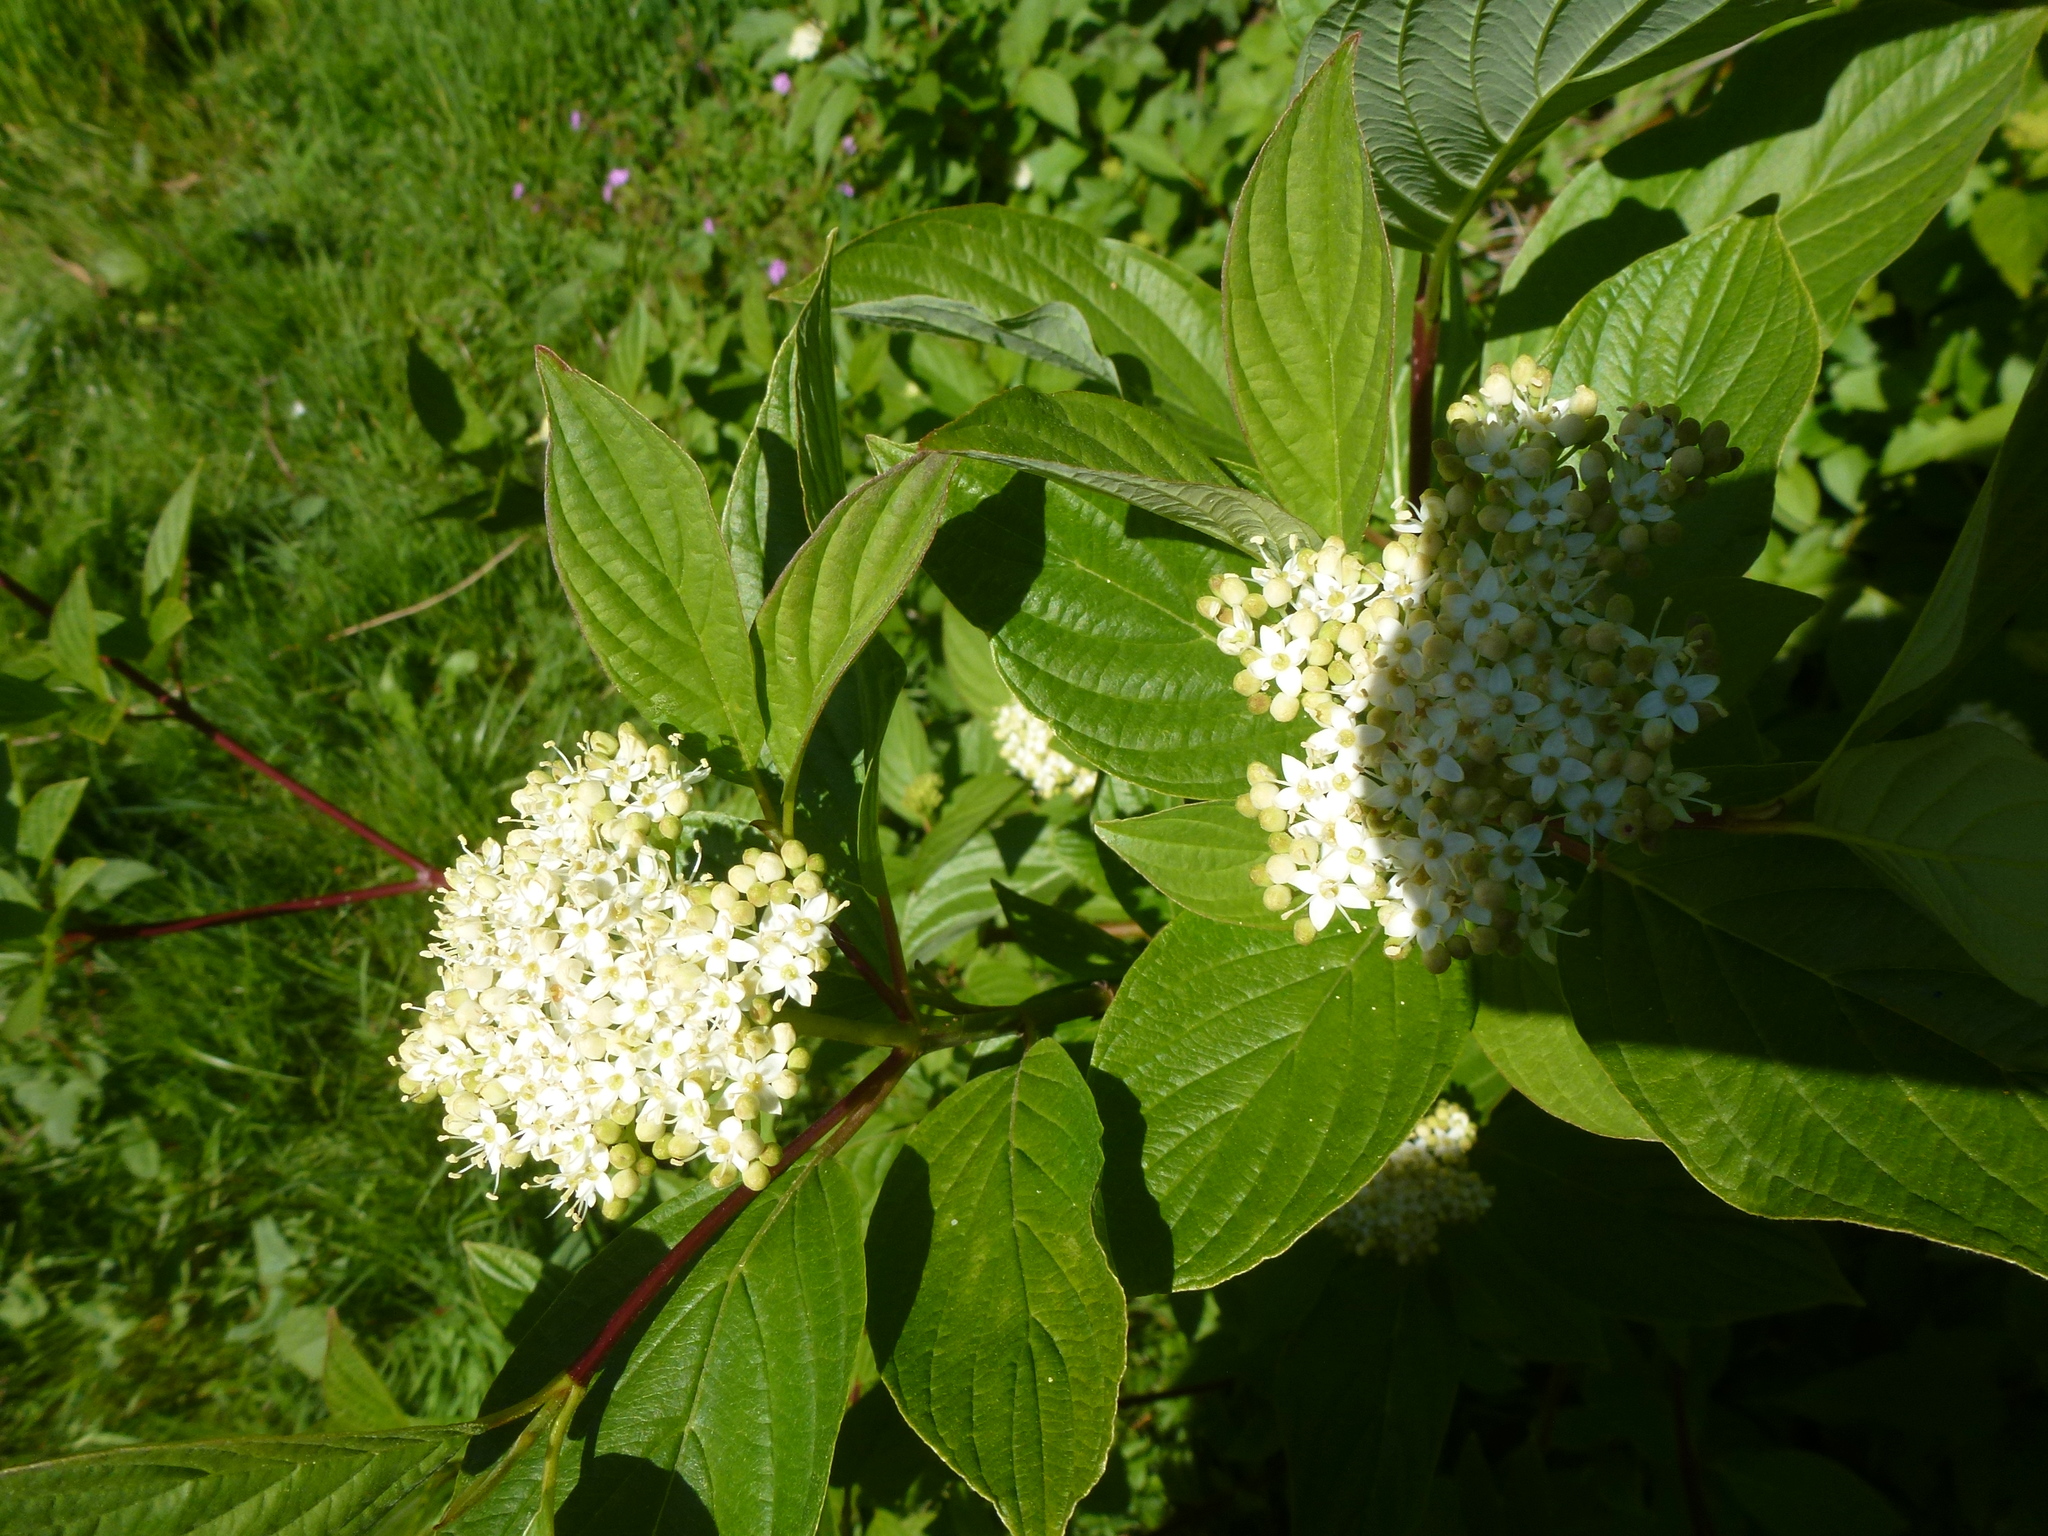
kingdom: Plantae
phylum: Tracheophyta
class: Magnoliopsida
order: Cornales
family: Cornaceae
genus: Cornus
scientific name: Cornus sanguinea
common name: Dogwood
